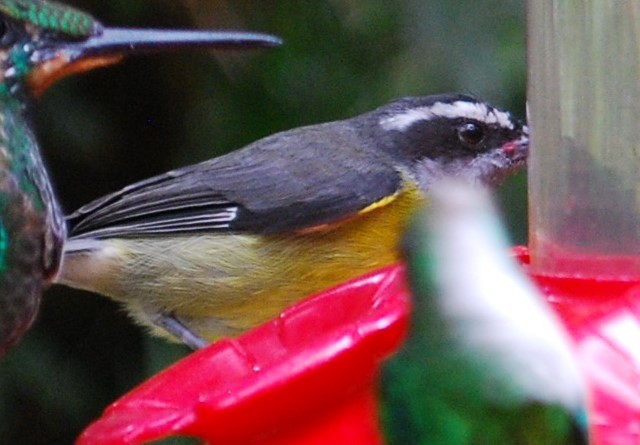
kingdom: Animalia
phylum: Chordata
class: Aves
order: Passeriformes
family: Thraupidae
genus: Coereba
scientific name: Coereba flaveola
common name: Bananaquit
